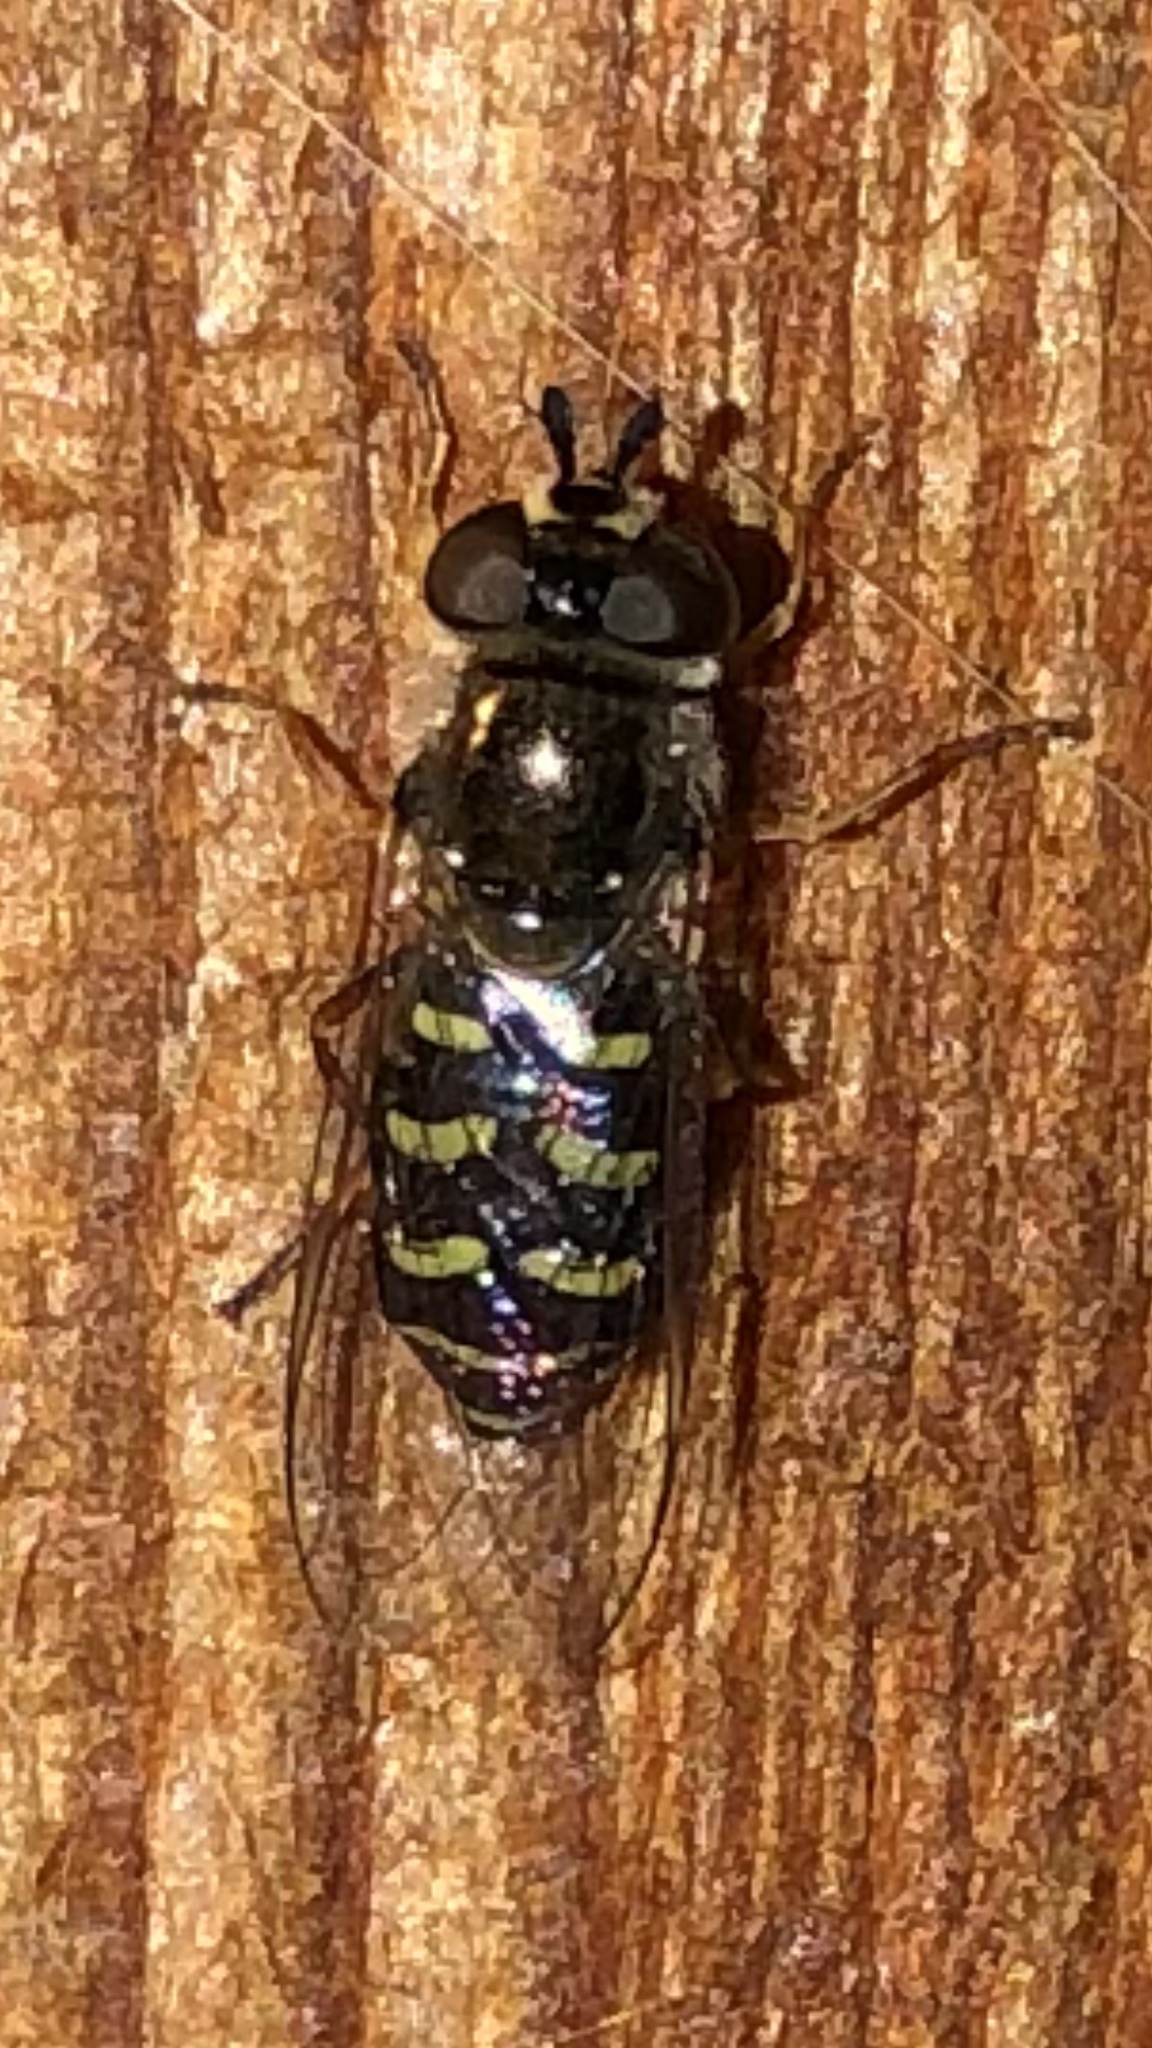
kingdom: Animalia
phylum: Arthropoda
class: Insecta
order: Diptera
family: Syrphidae
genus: Eupeodes
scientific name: Eupeodes volucris
